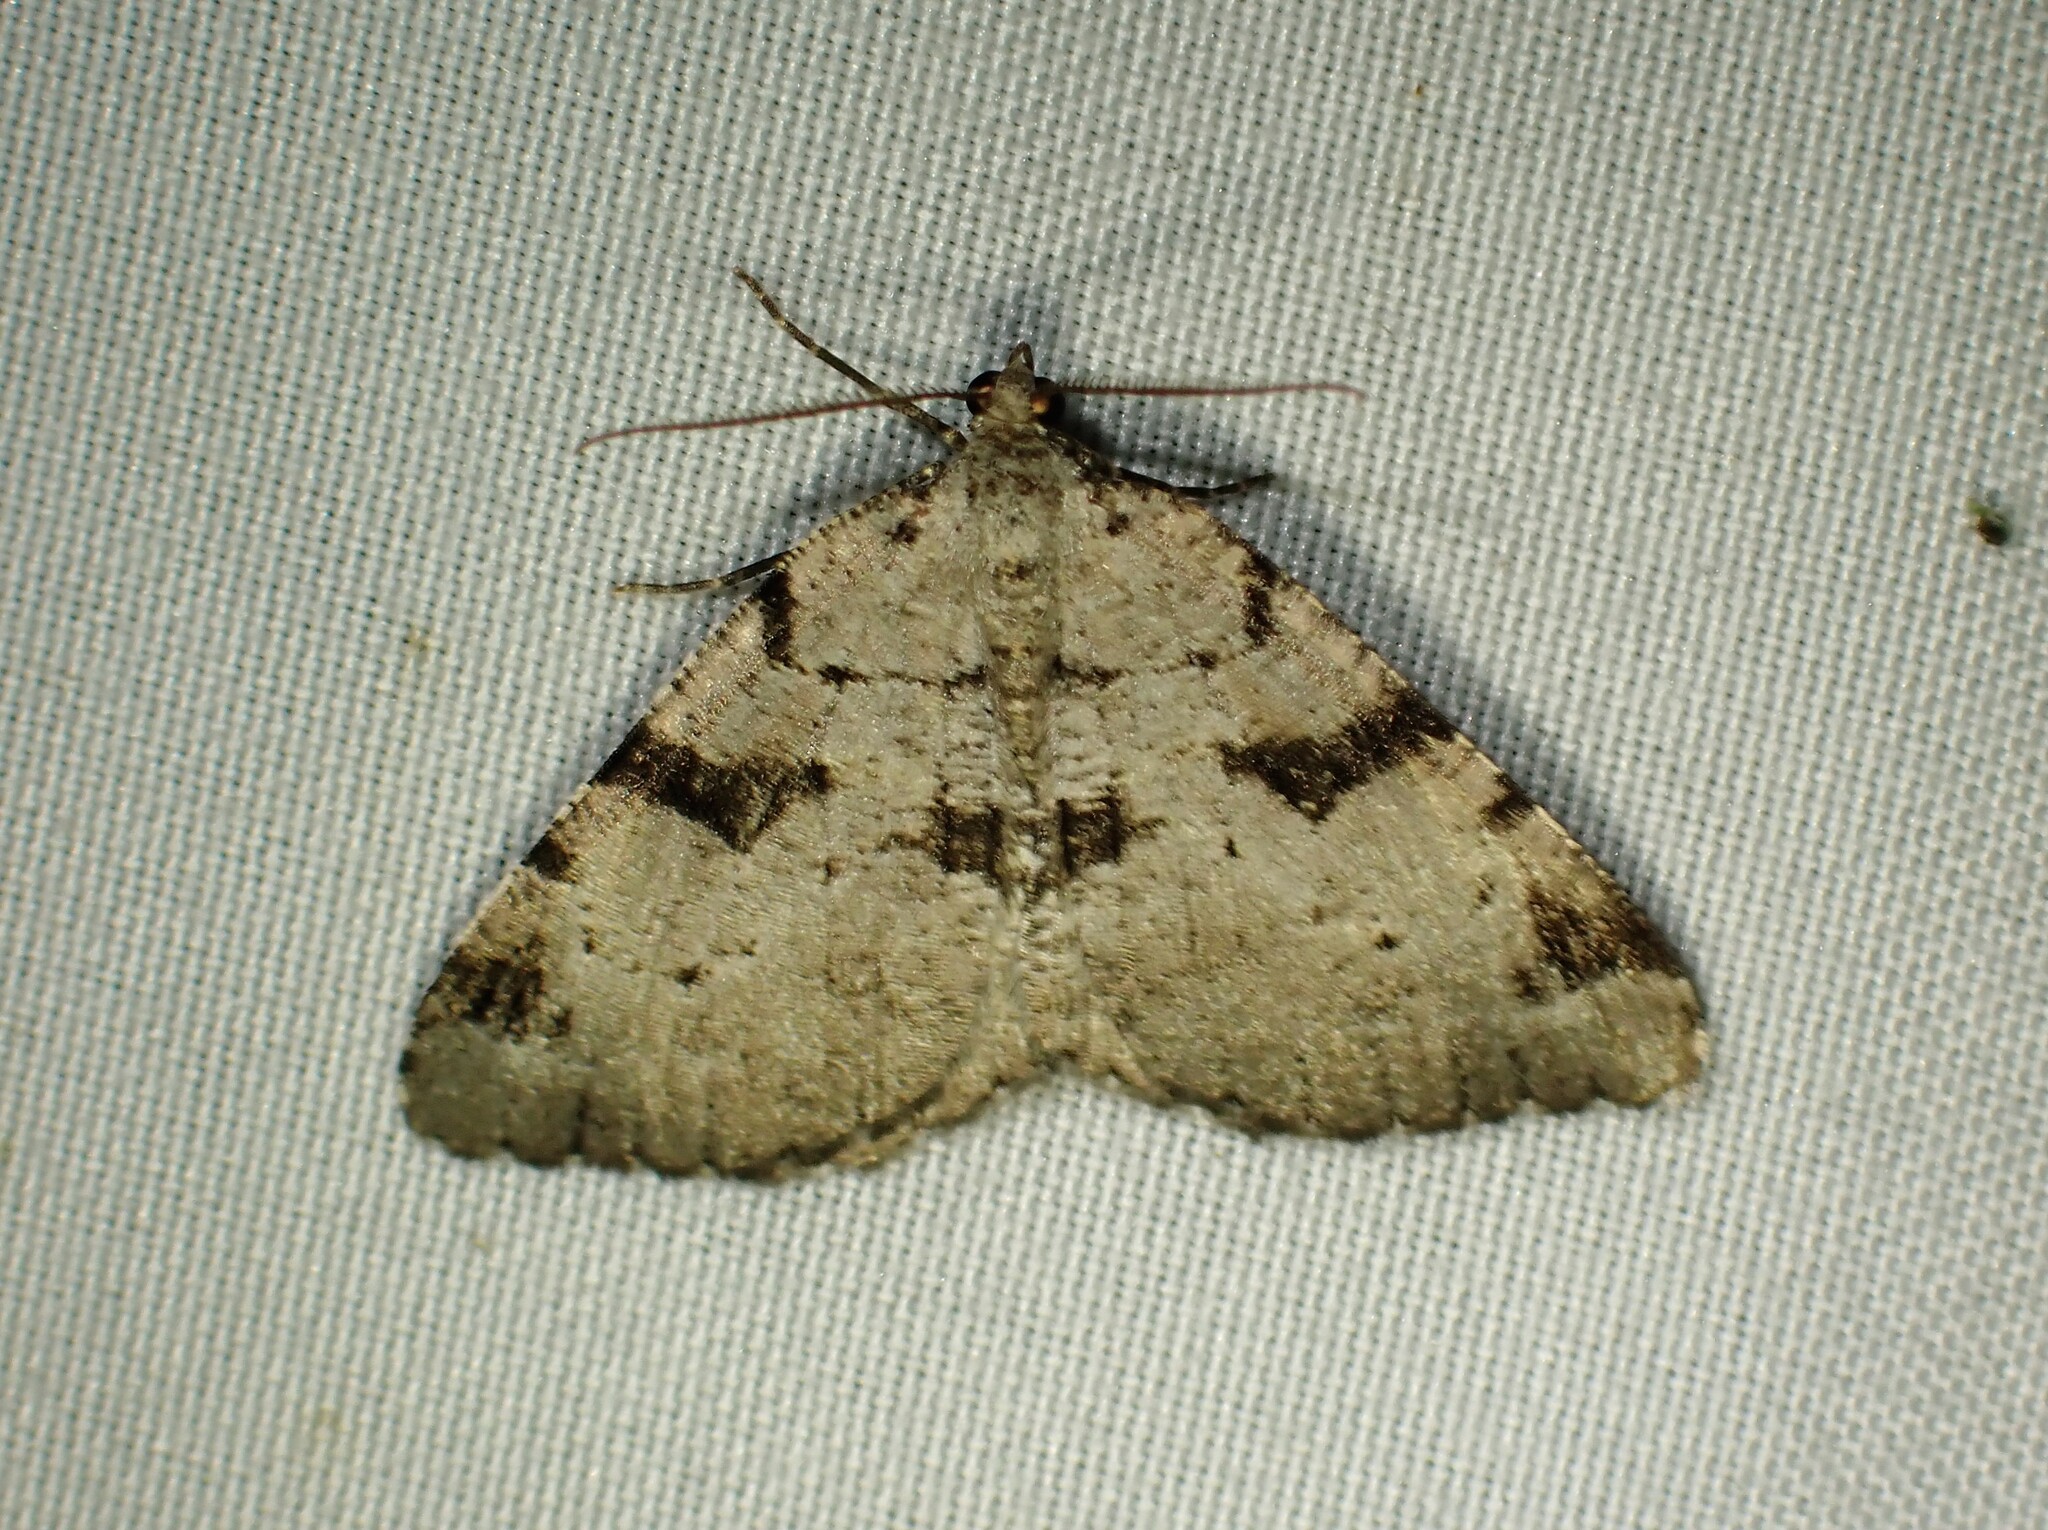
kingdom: Animalia
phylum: Arthropoda
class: Insecta
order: Lepidoptera
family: Geometridae
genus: Macaria
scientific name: Macaria bitactata
